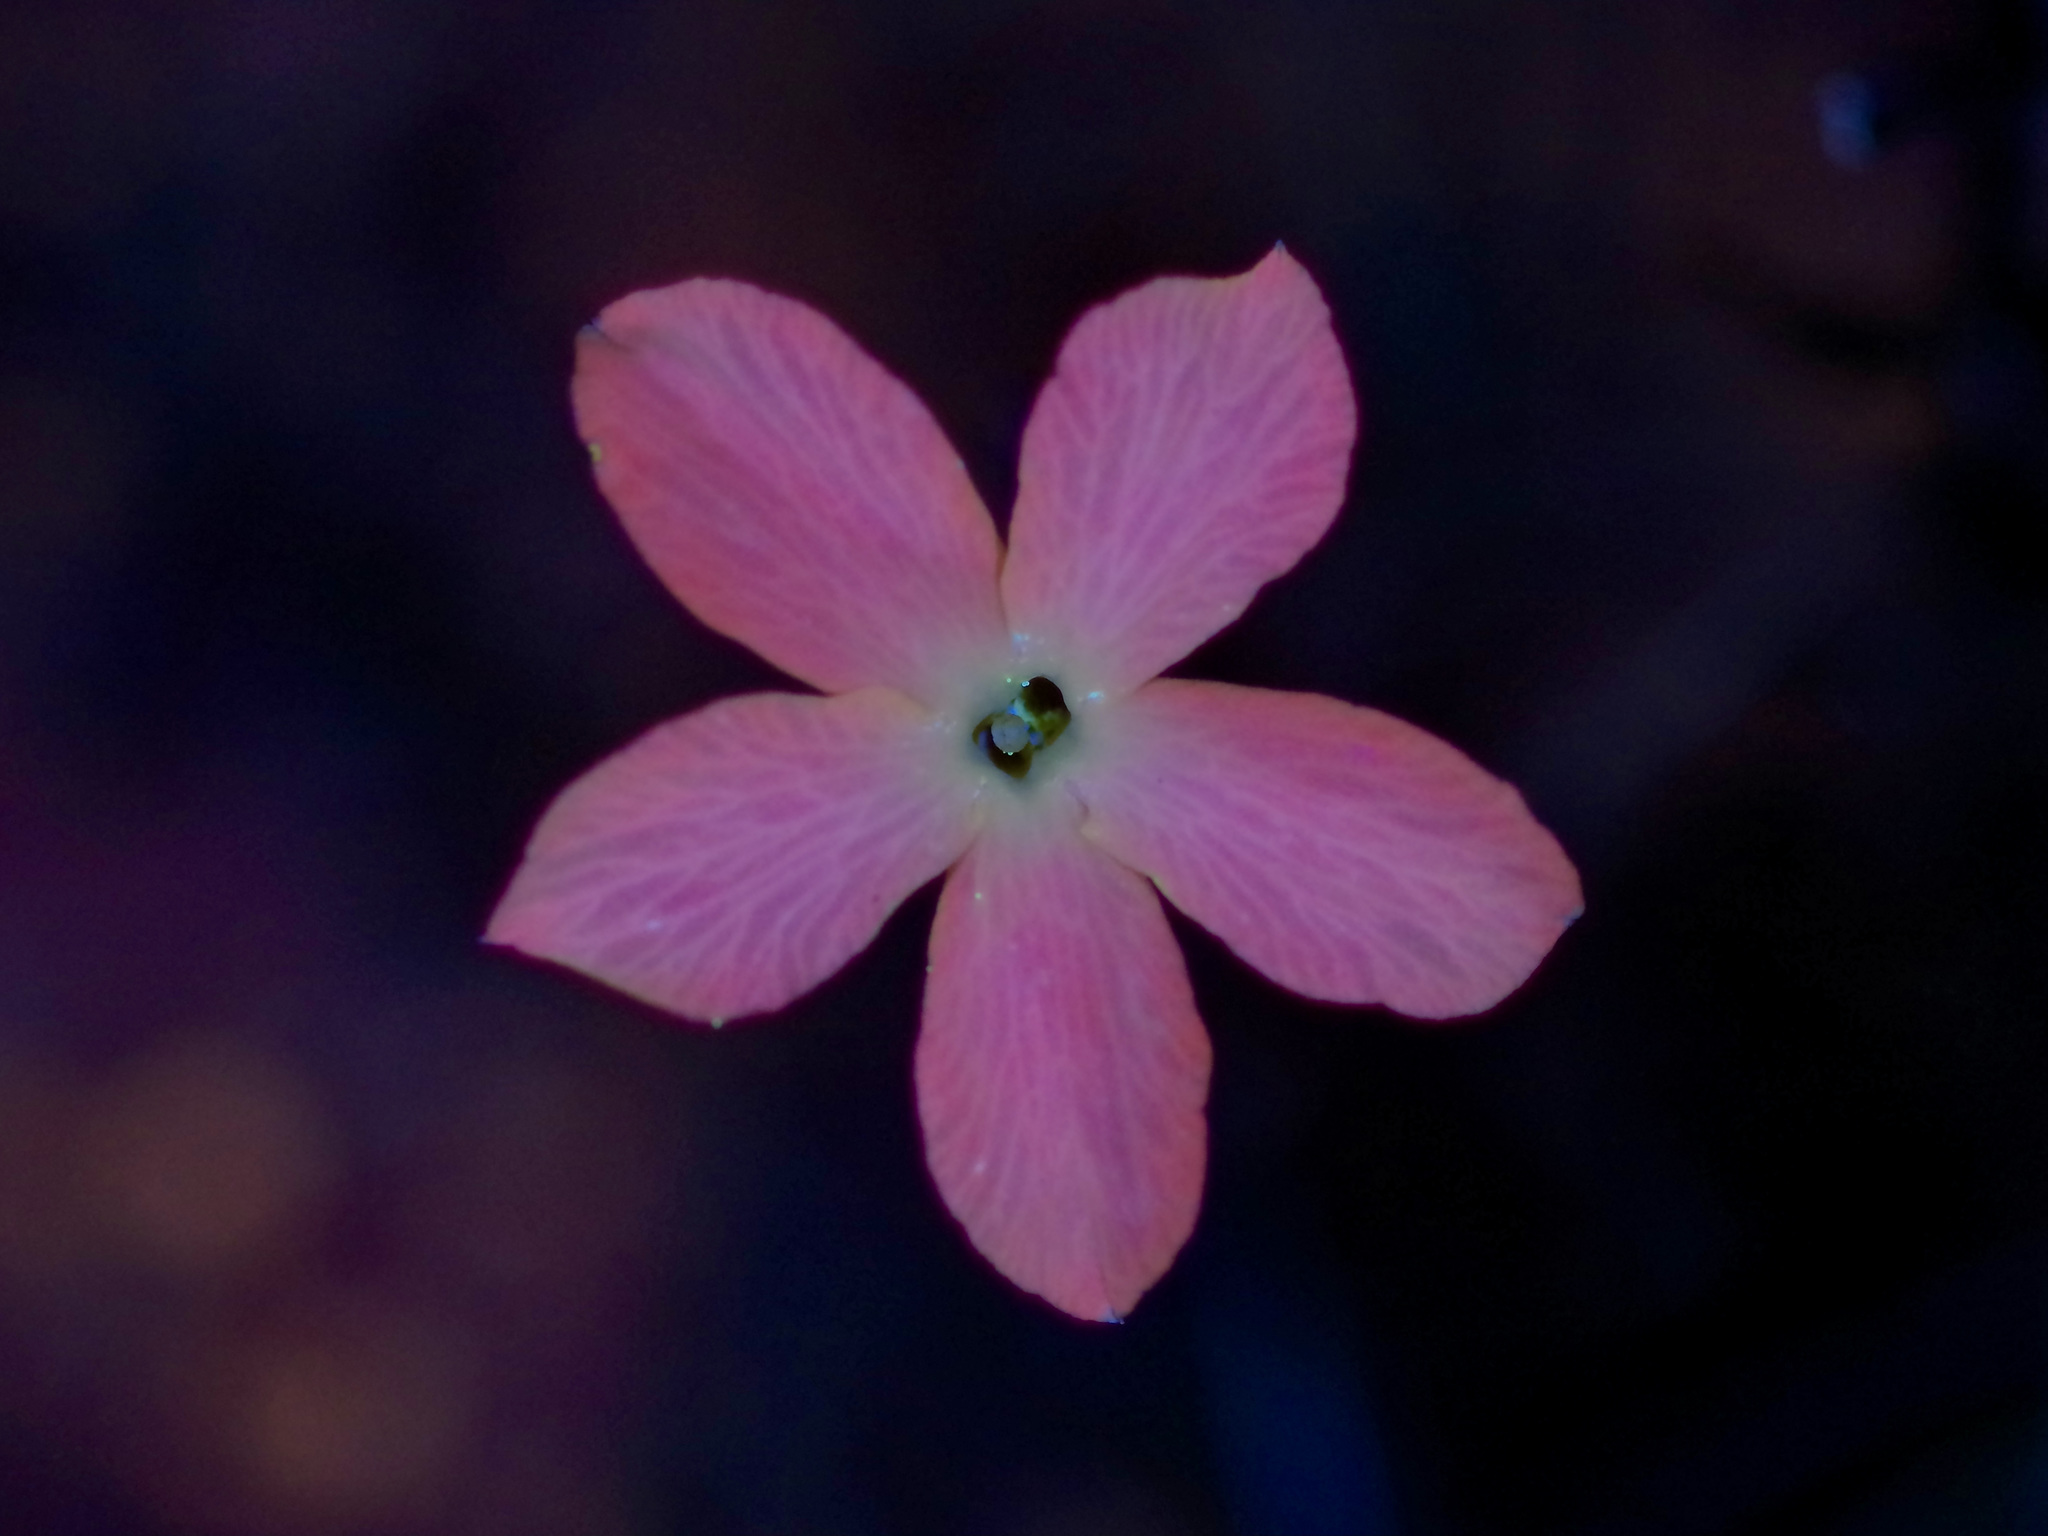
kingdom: Plantae
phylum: Tracheophyta
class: Magnoliopsida
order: Lamiales
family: Oleaceae
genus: Menodora
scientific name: Menodora longiflora
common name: Showy menodora
